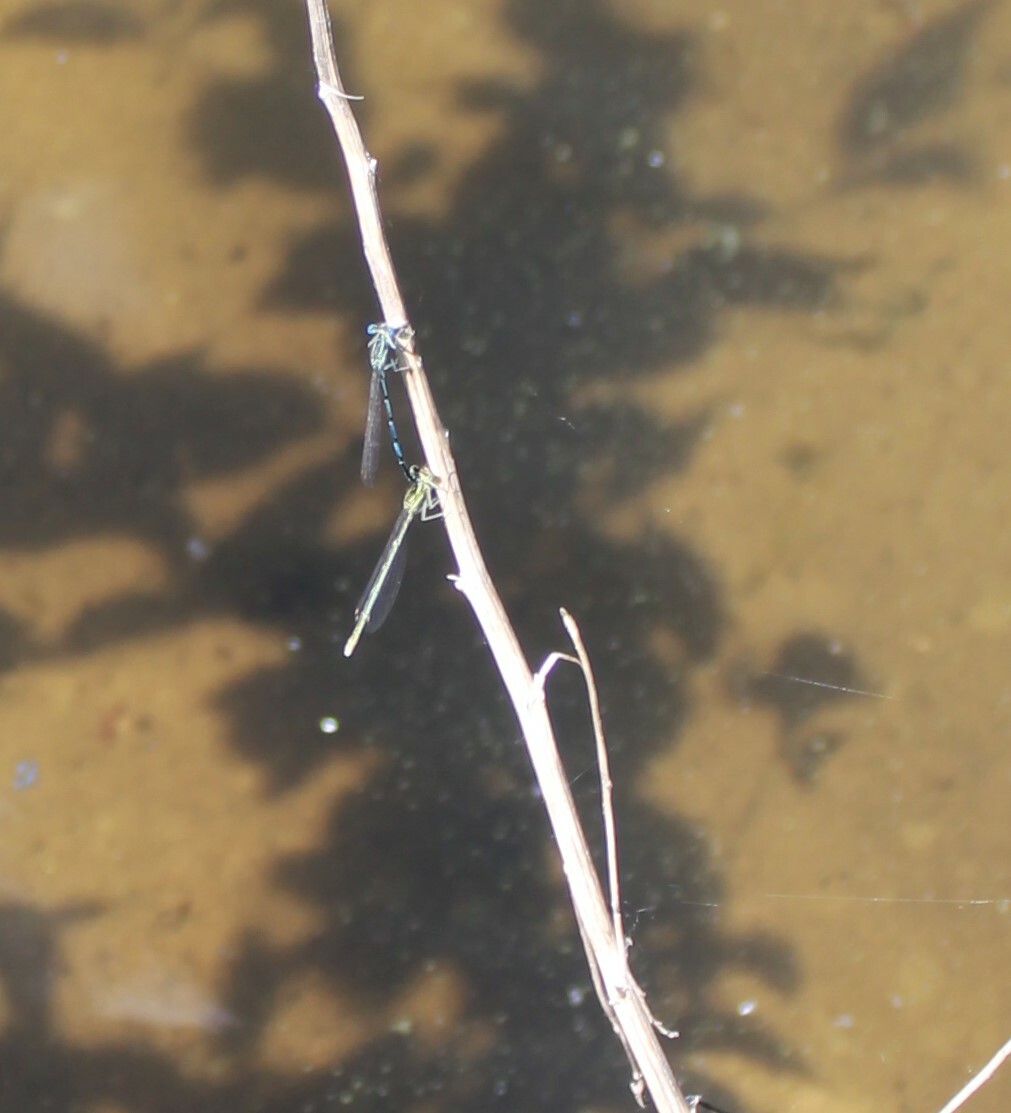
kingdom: Animalia
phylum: Arthropoda
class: Insecta
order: Odonata
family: Platycnemididae
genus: Platycnemis
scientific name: Platycnemis pennipes
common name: White-legged damselfly
